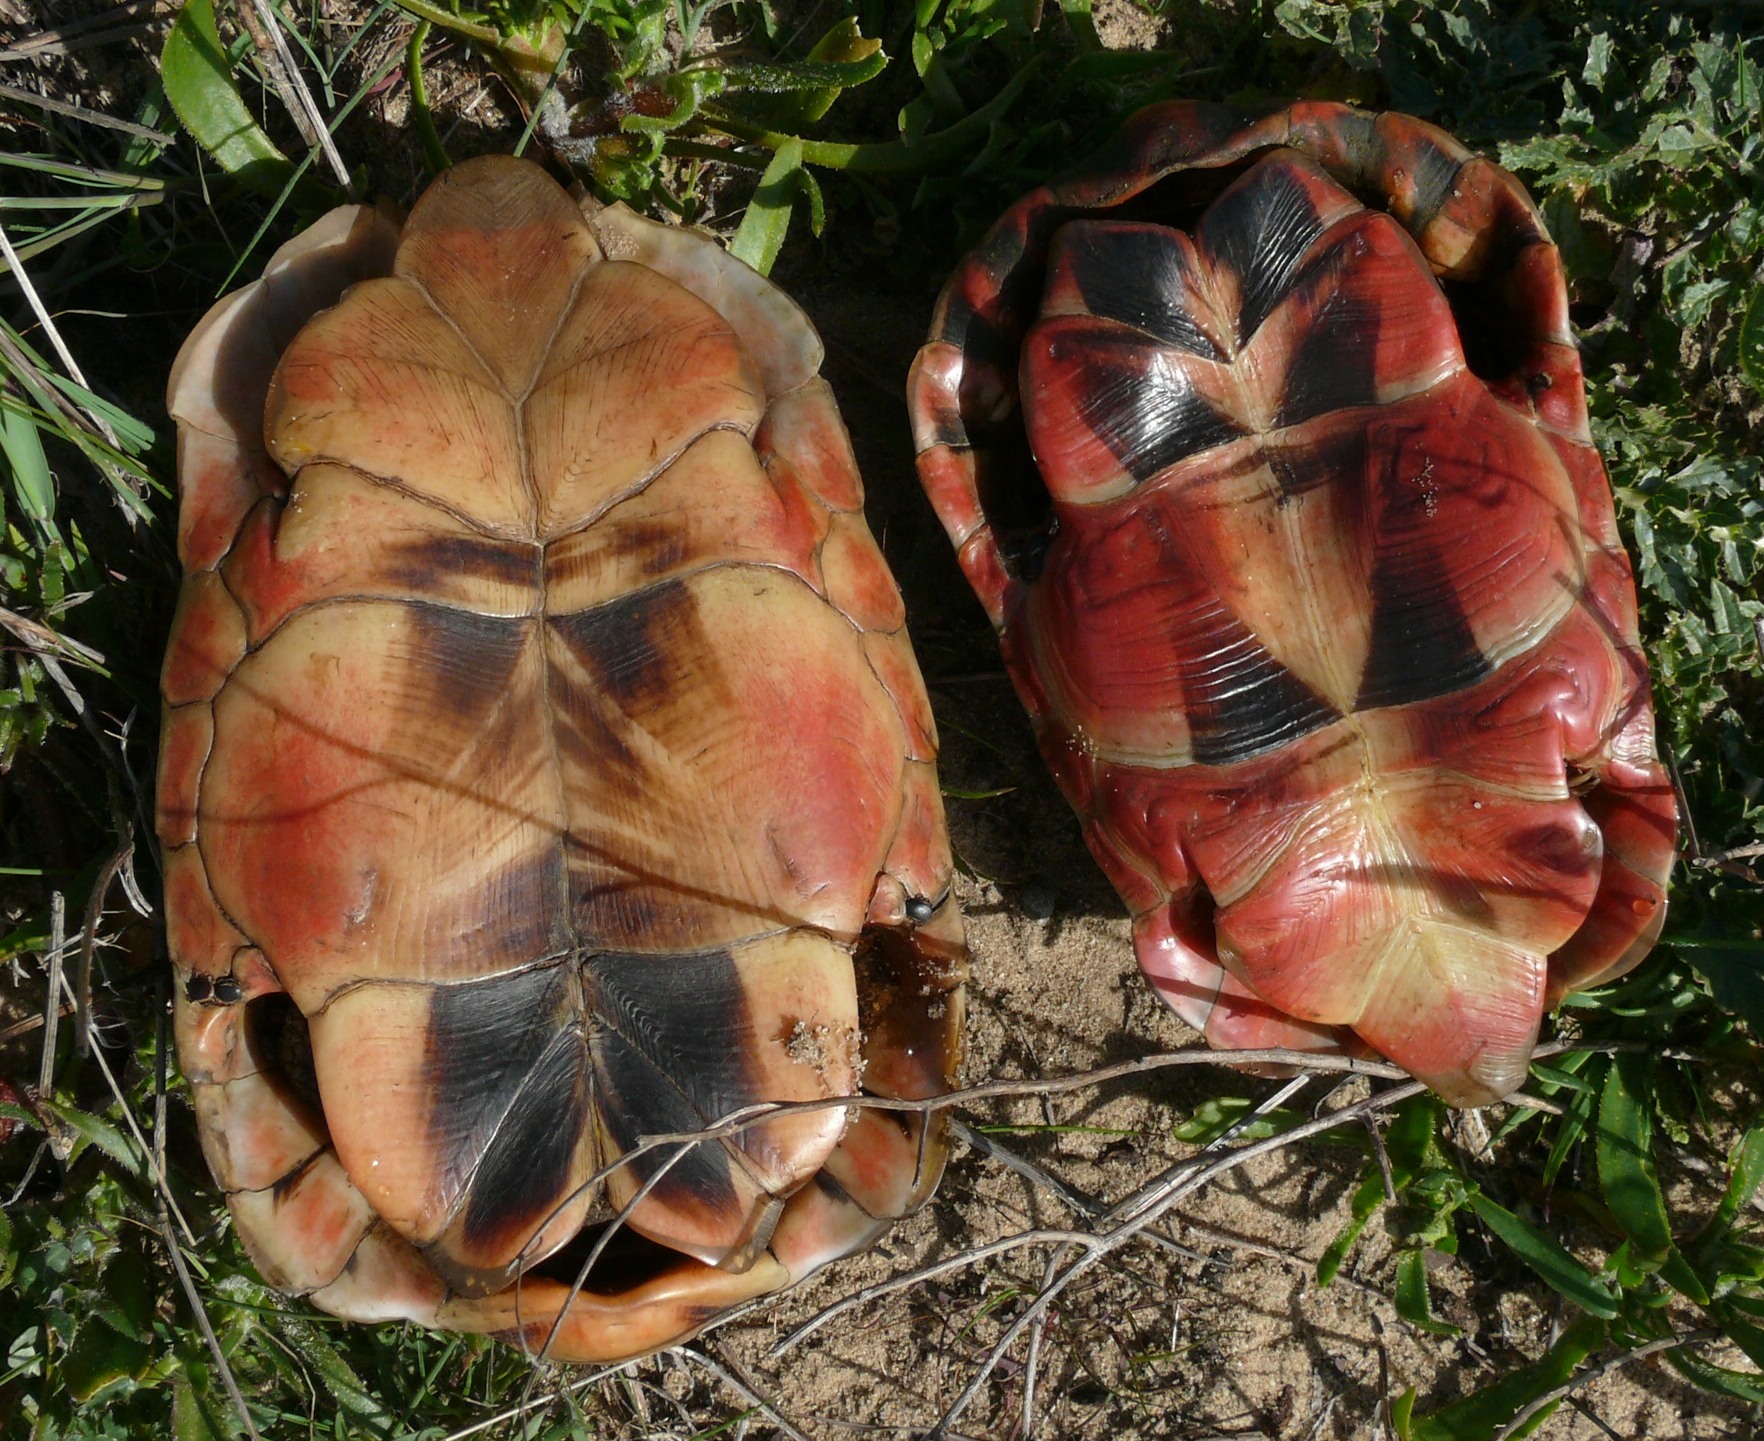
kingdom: Animalia
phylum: Chordata
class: Testudines
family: Testudinidae
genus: Chersina
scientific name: Chersina angulata
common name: South african bowsprit tortoise
